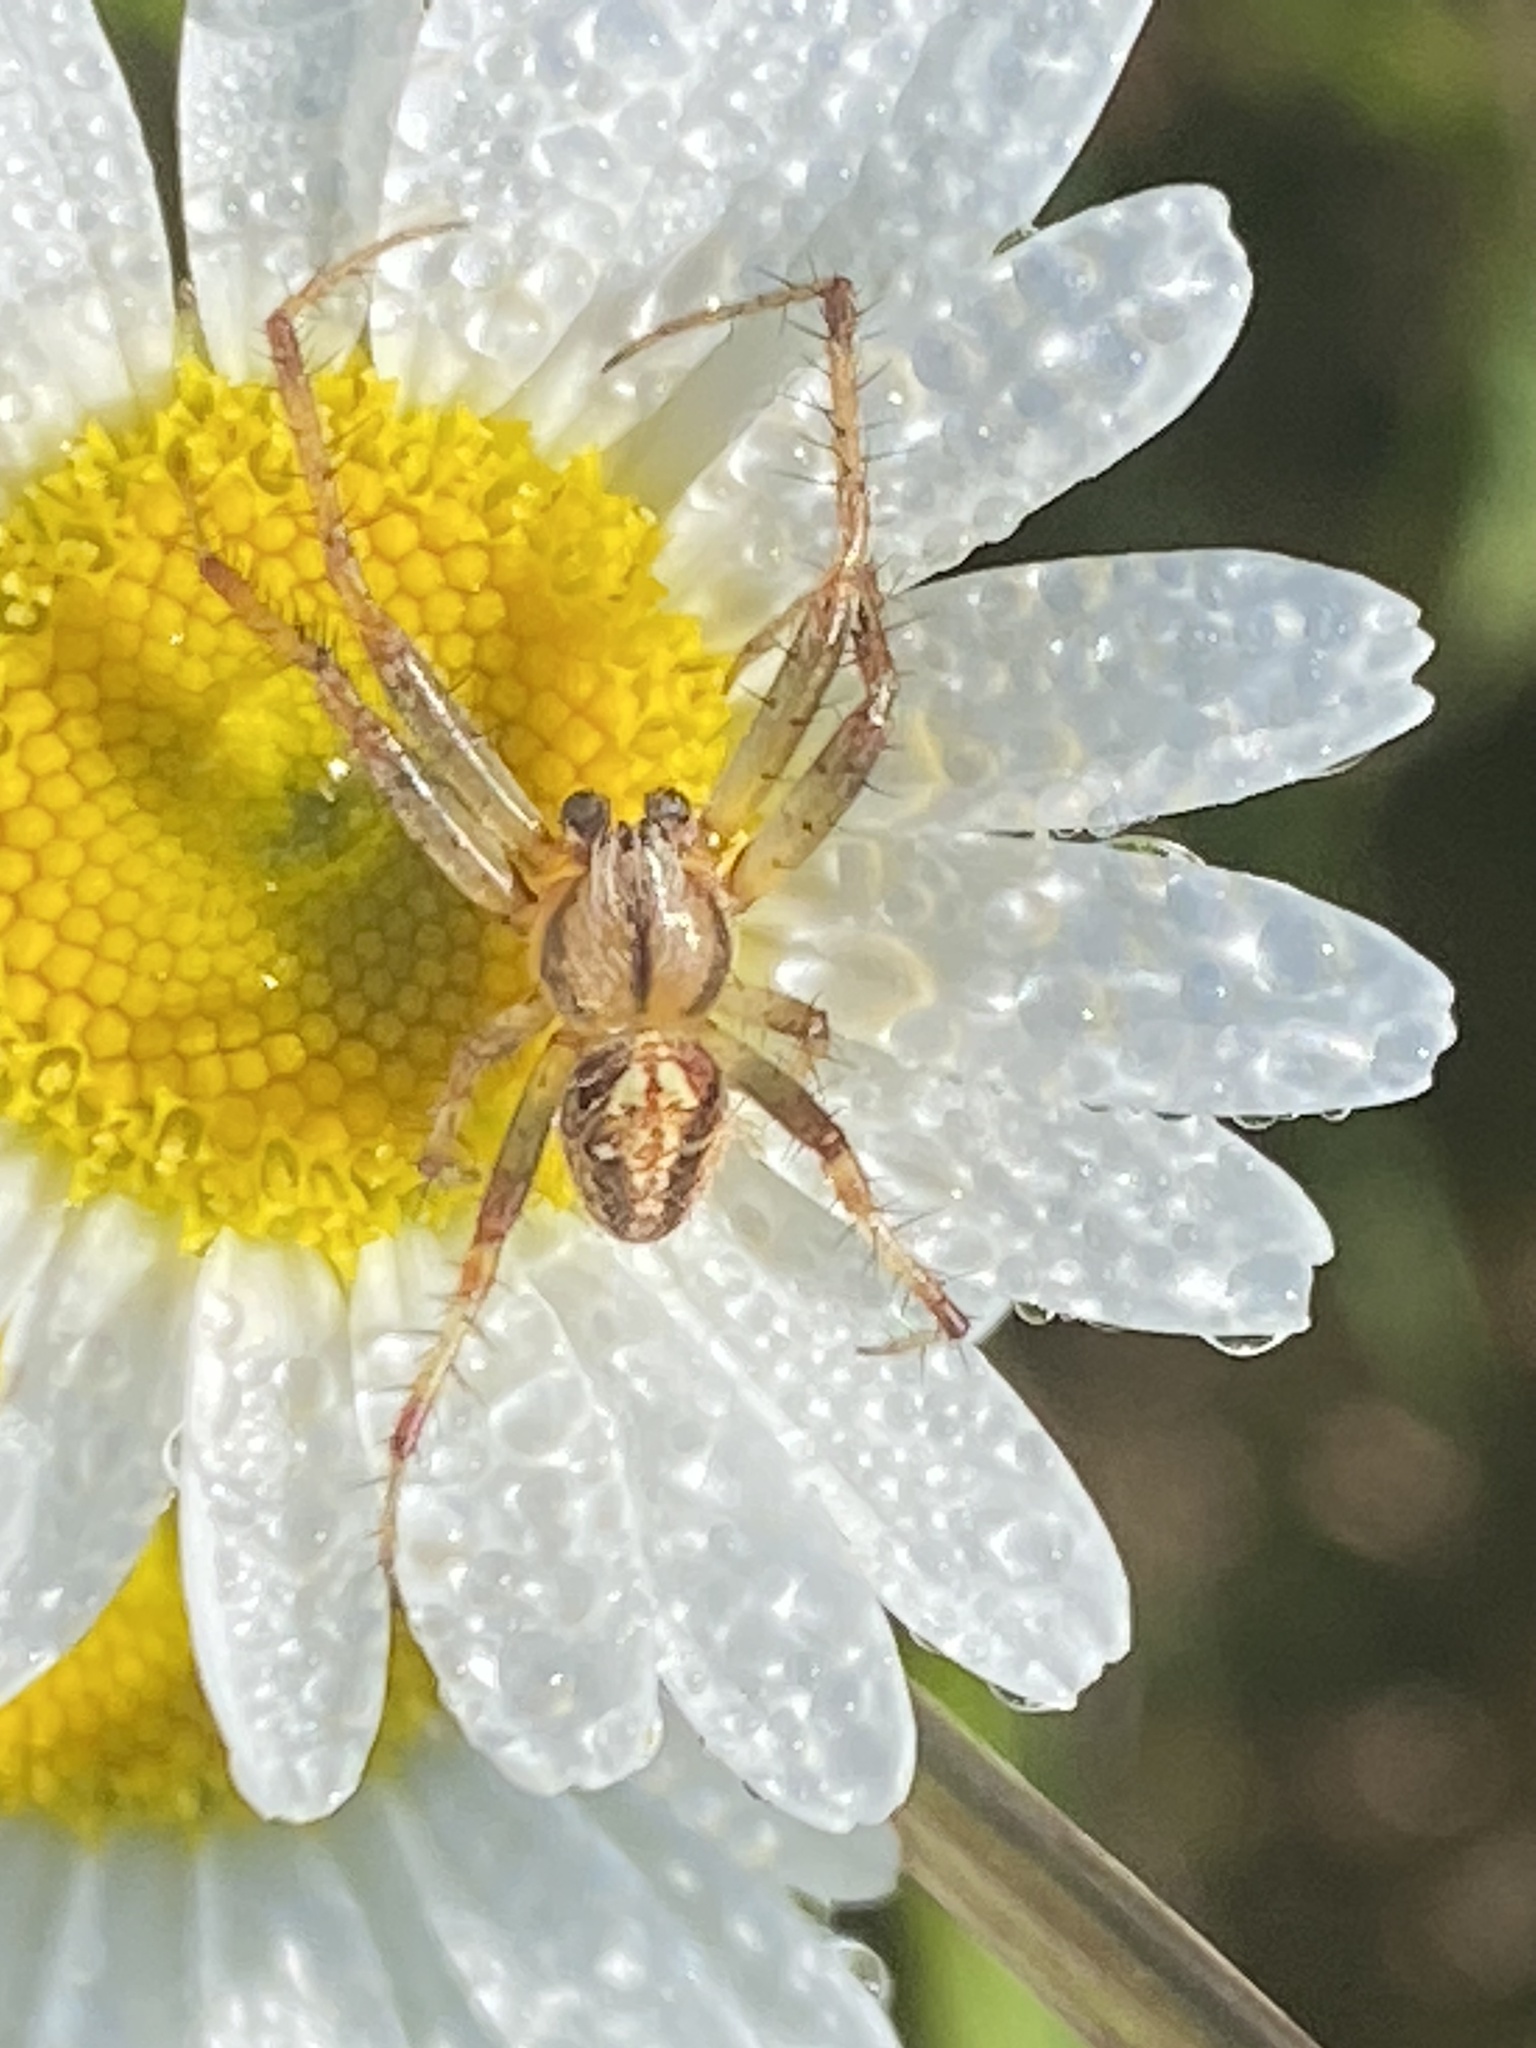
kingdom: Animalia
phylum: Arthropoda
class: Arachnida
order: Araneae
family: Araneidae
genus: Neoscona
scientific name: Neoscona arabesca
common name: Orb weavers
